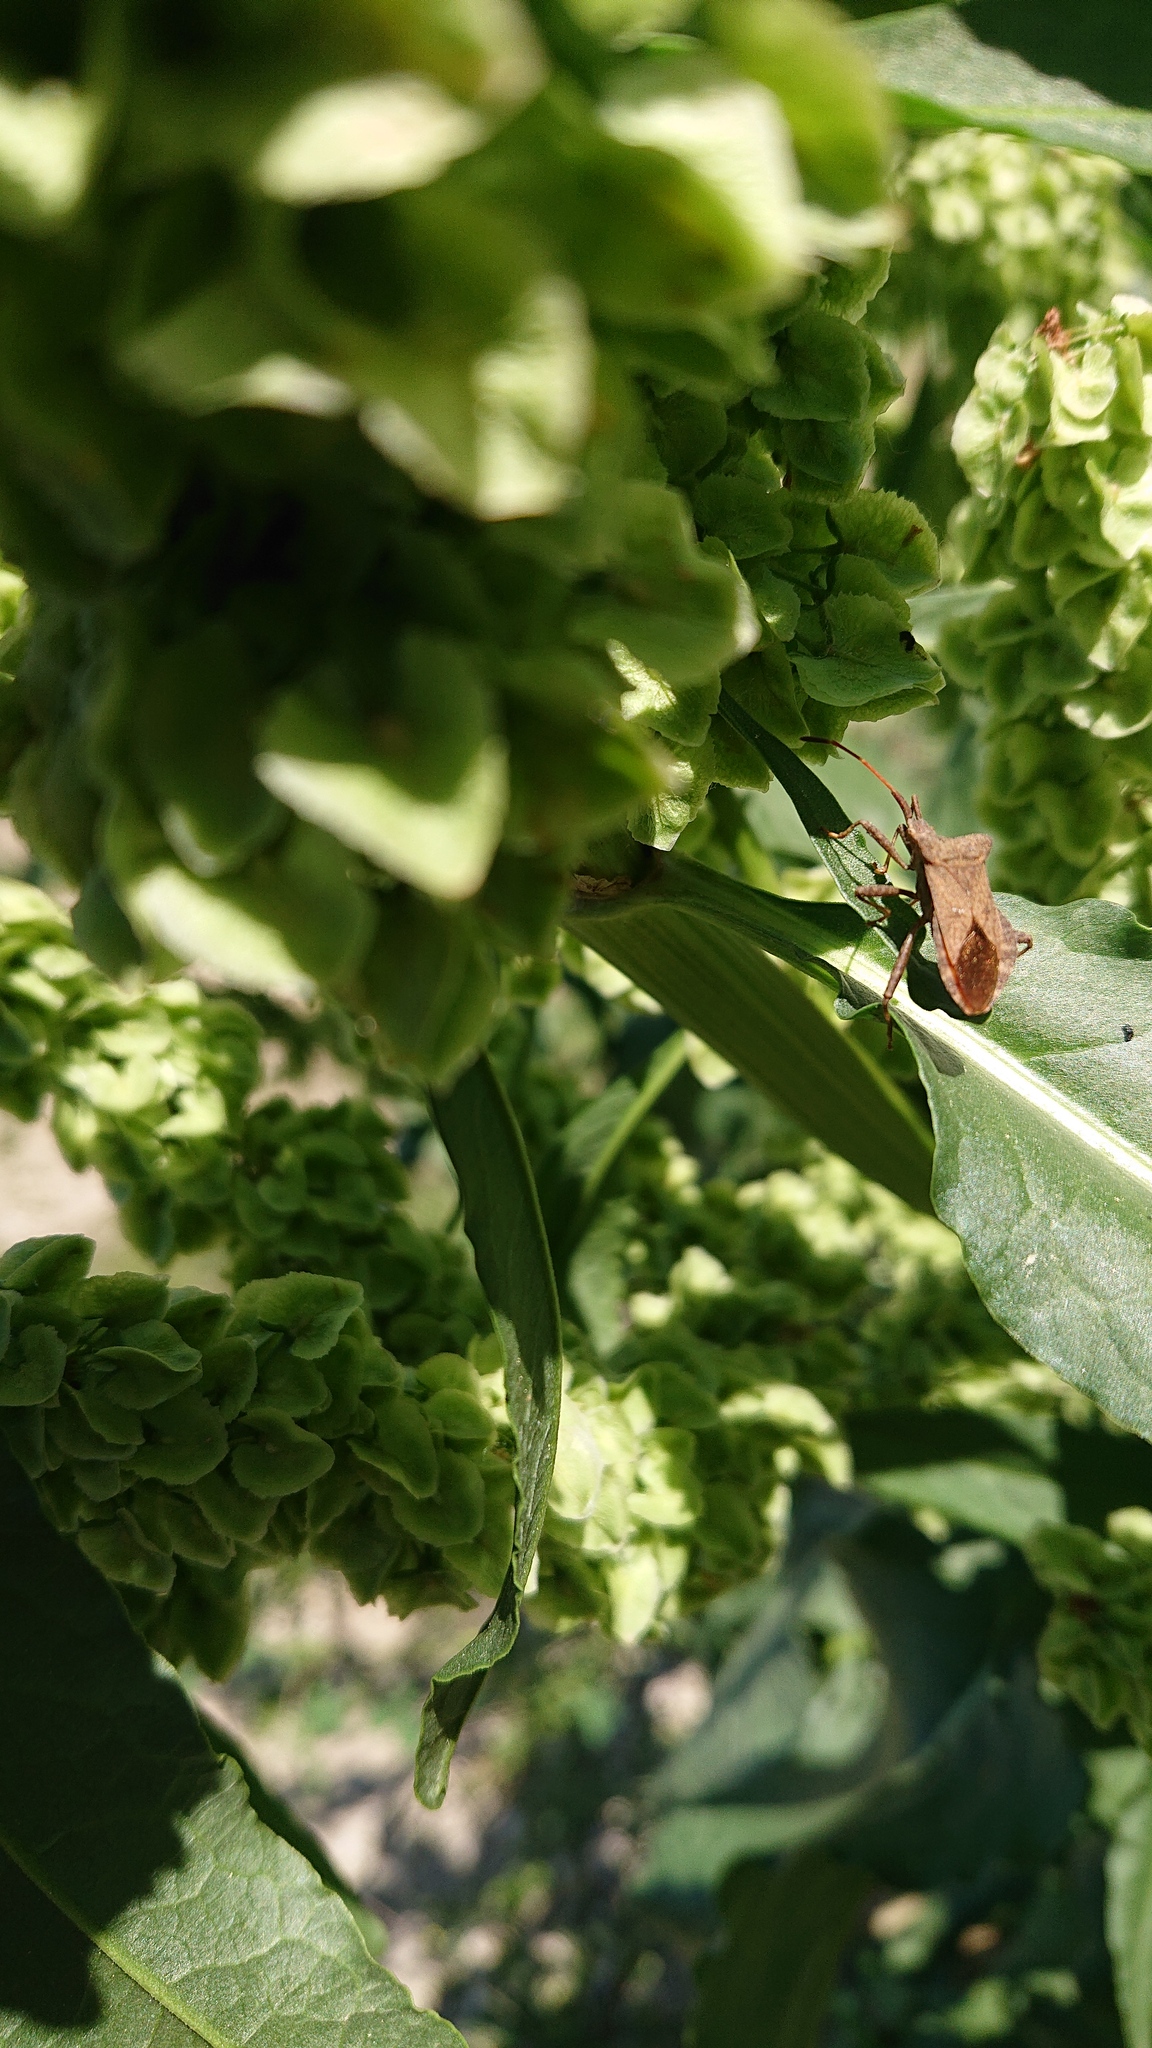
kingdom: Animalia
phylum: Arthropoda
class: Insecta
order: Hemiptera
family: Coreidae
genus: Coreus
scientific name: Coreus marginatus
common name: Dock bug
